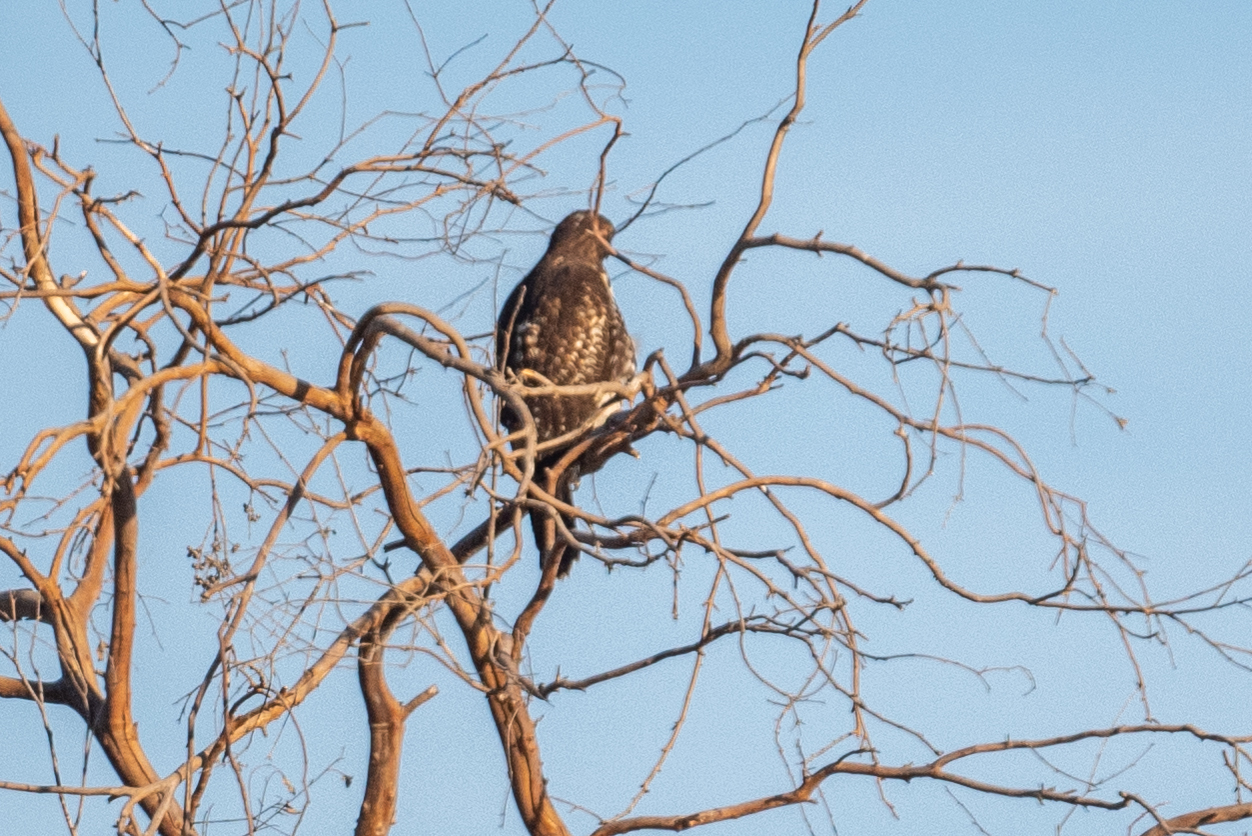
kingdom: Animalia
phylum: Chordata
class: Aves
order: Accipitriformes
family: Accipitridae
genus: Buteo
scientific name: Buteo jamaicensis
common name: Red-tailed hawk
